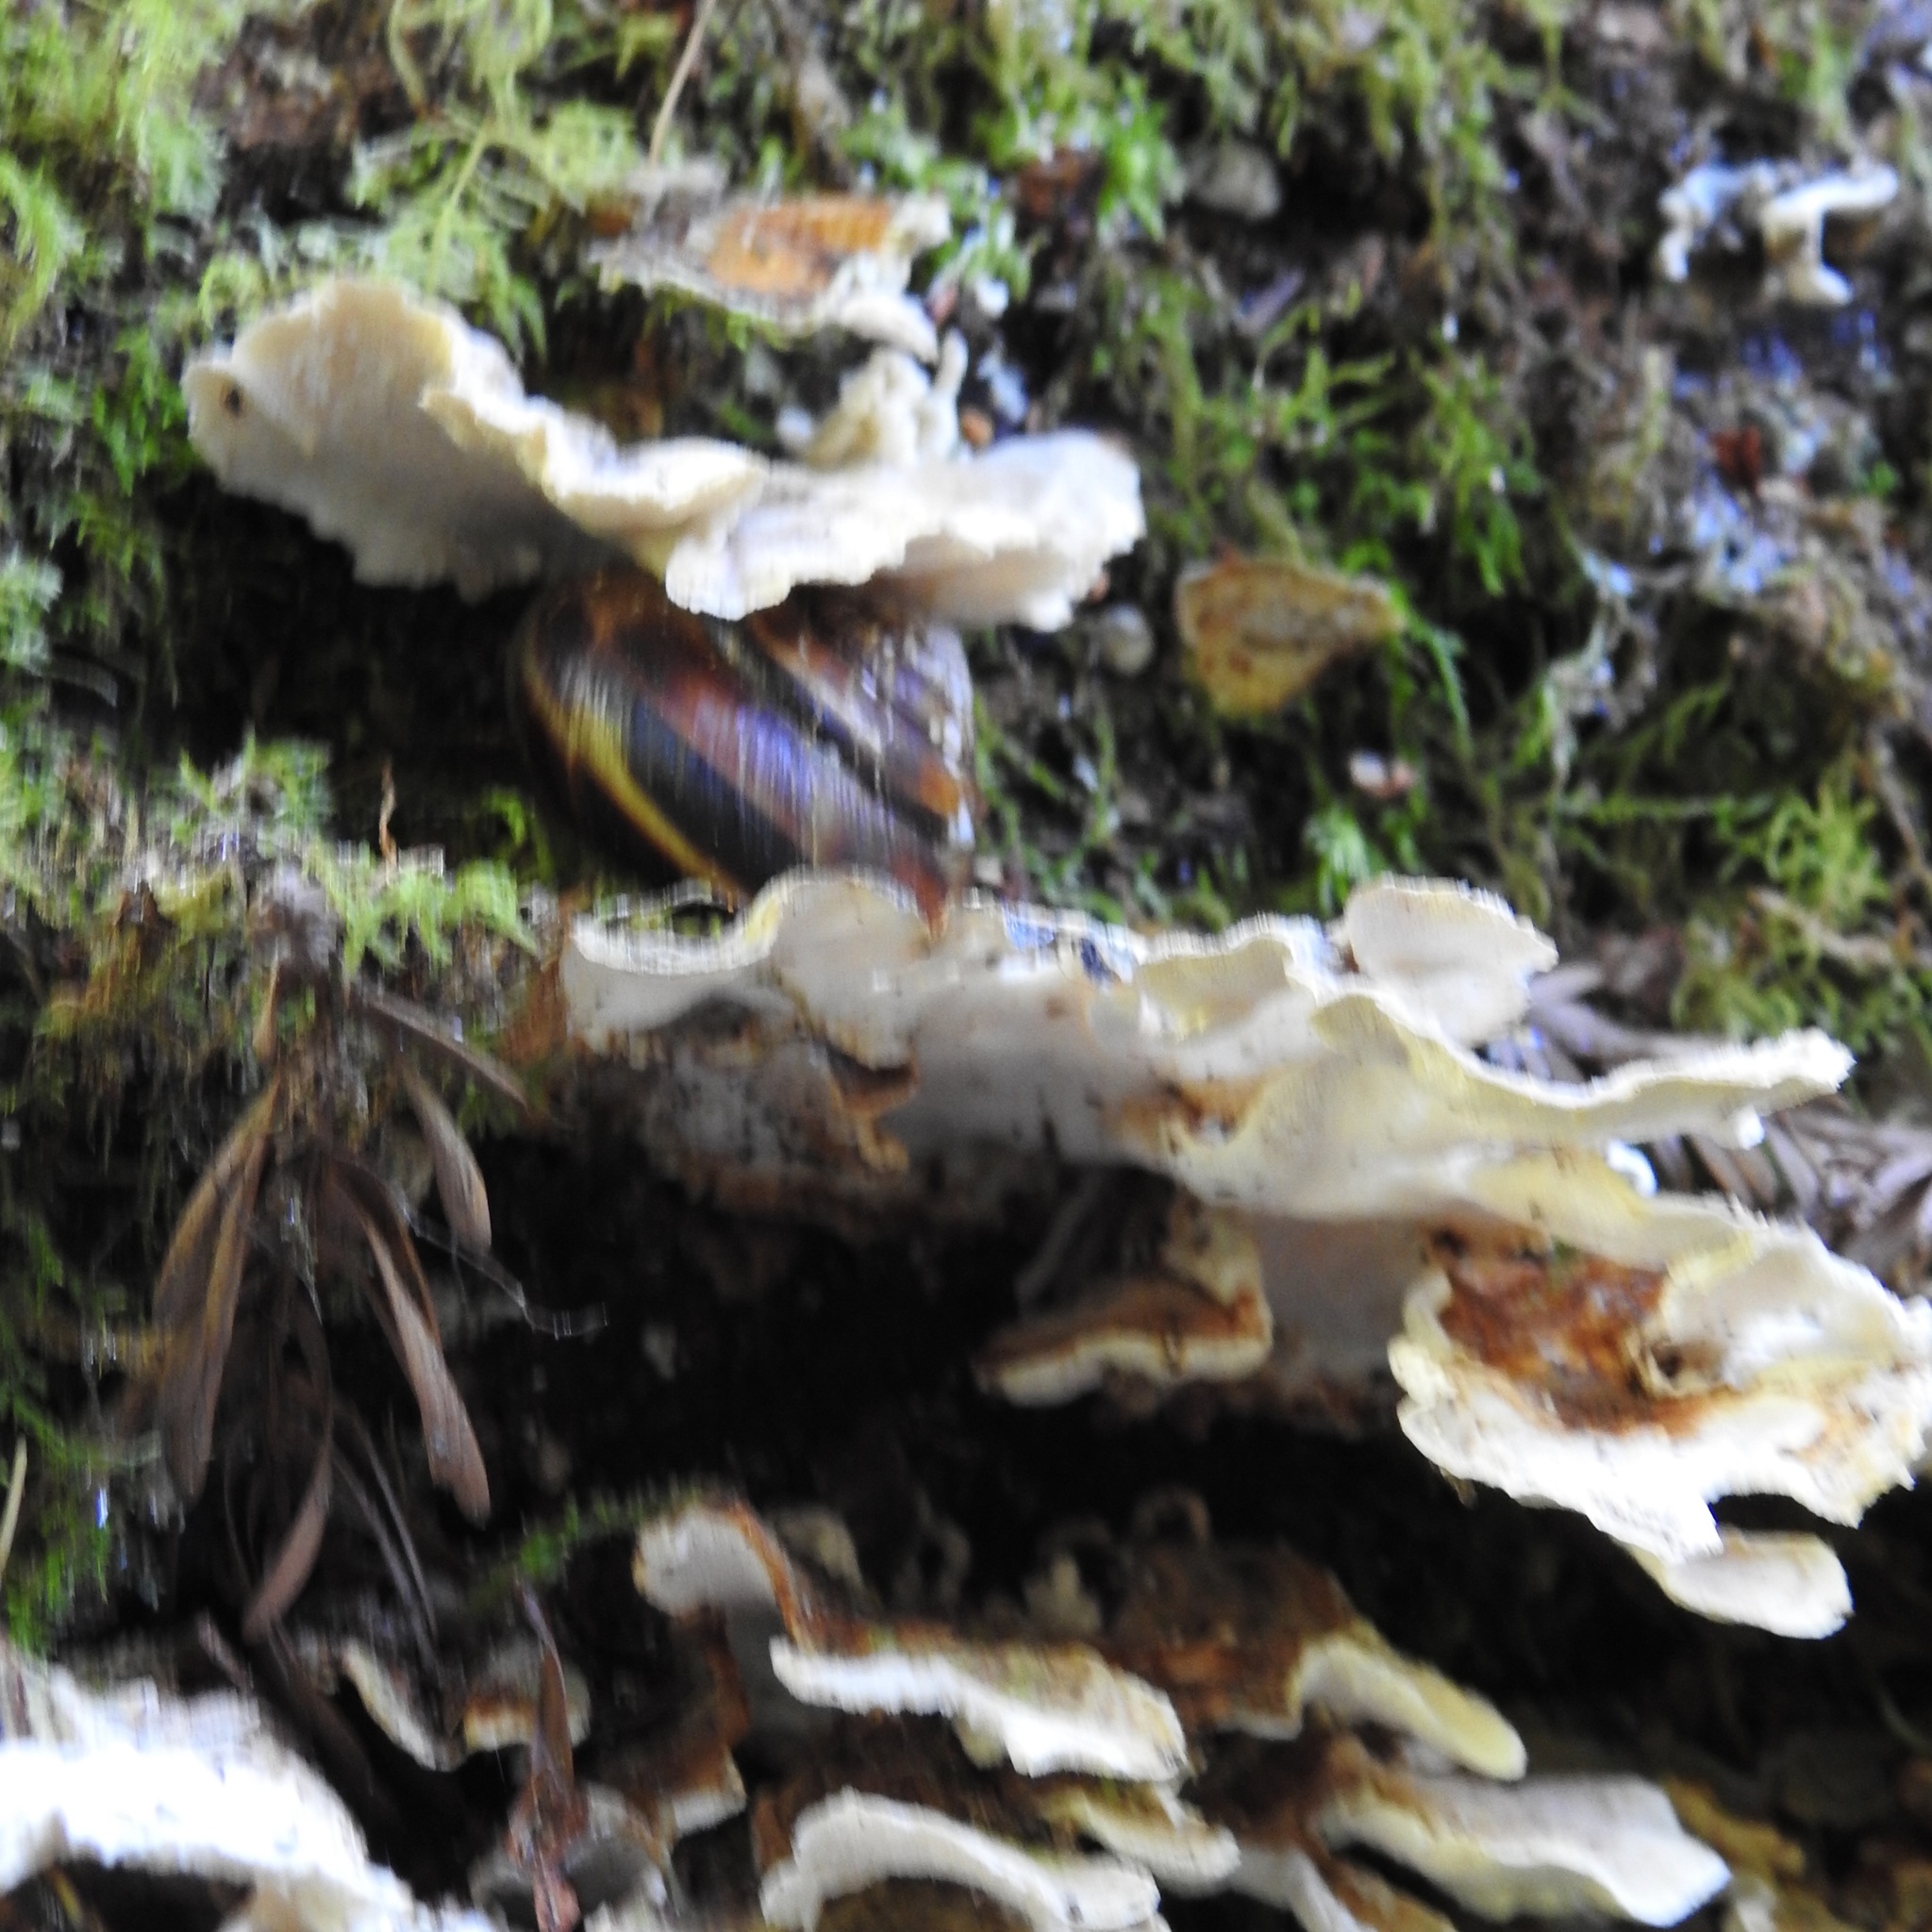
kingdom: Fungi
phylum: Basidiomycota
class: Agaricomycetes
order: Polyporales
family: Polyporaceae
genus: Trametes
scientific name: Trametes versicolor
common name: Turkeytail
